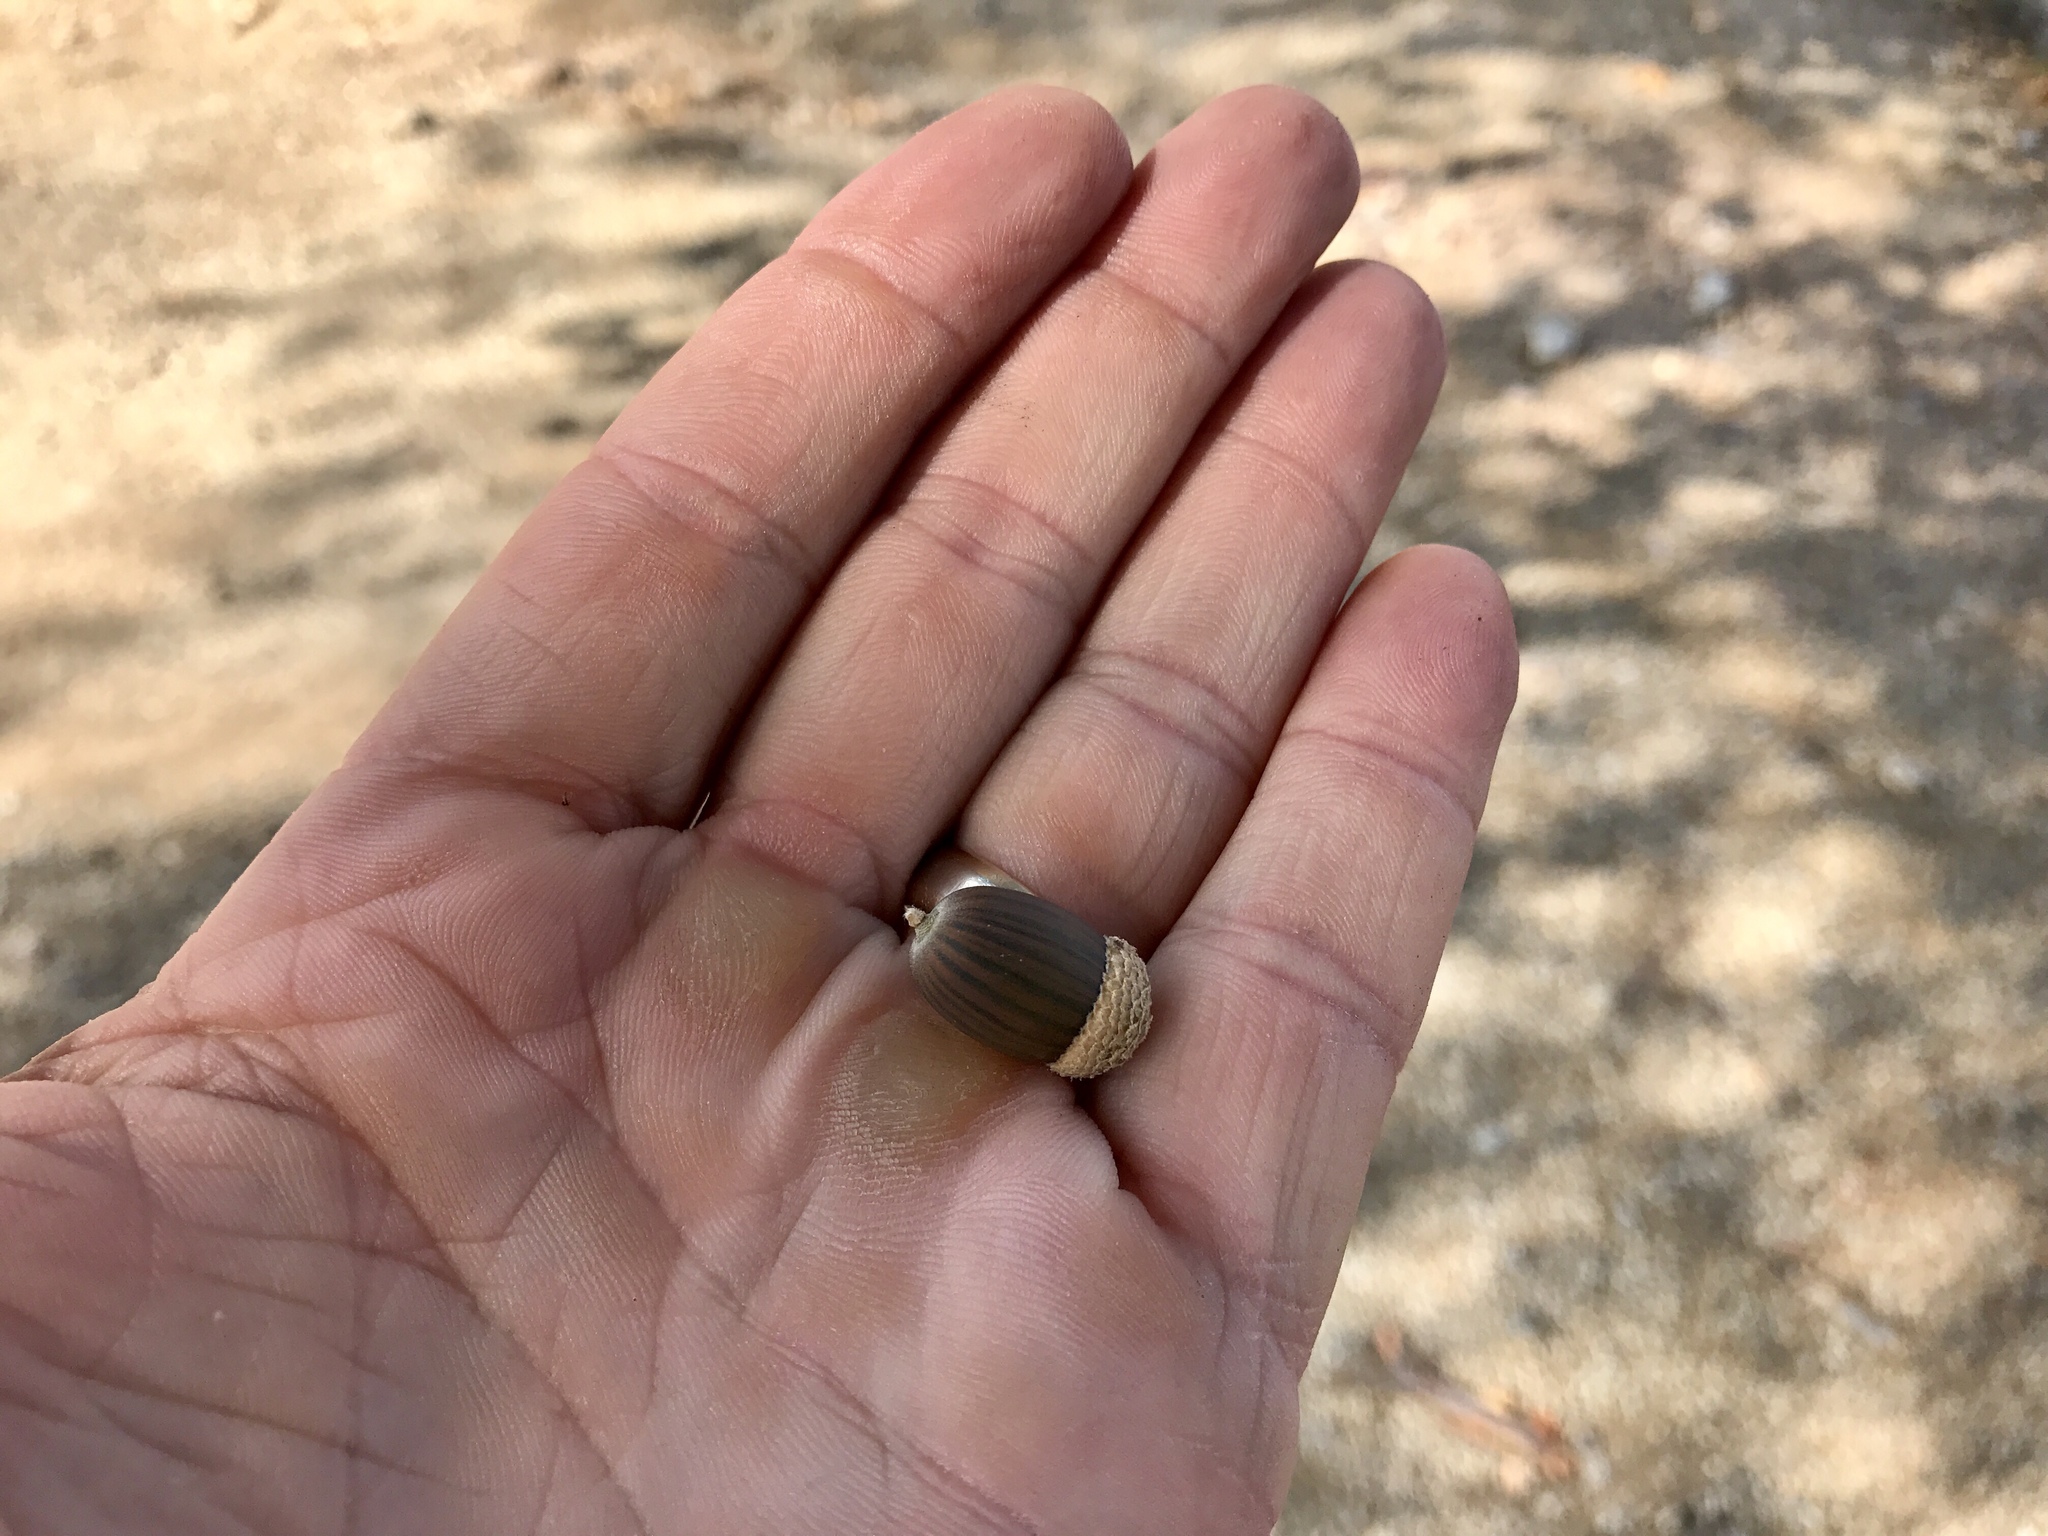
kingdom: Plantae
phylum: Tracheophyta
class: Magnoliopsida
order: Fagales
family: Fagaceae
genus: Quercus
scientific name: Quercus arizonica
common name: Arizona white oak
